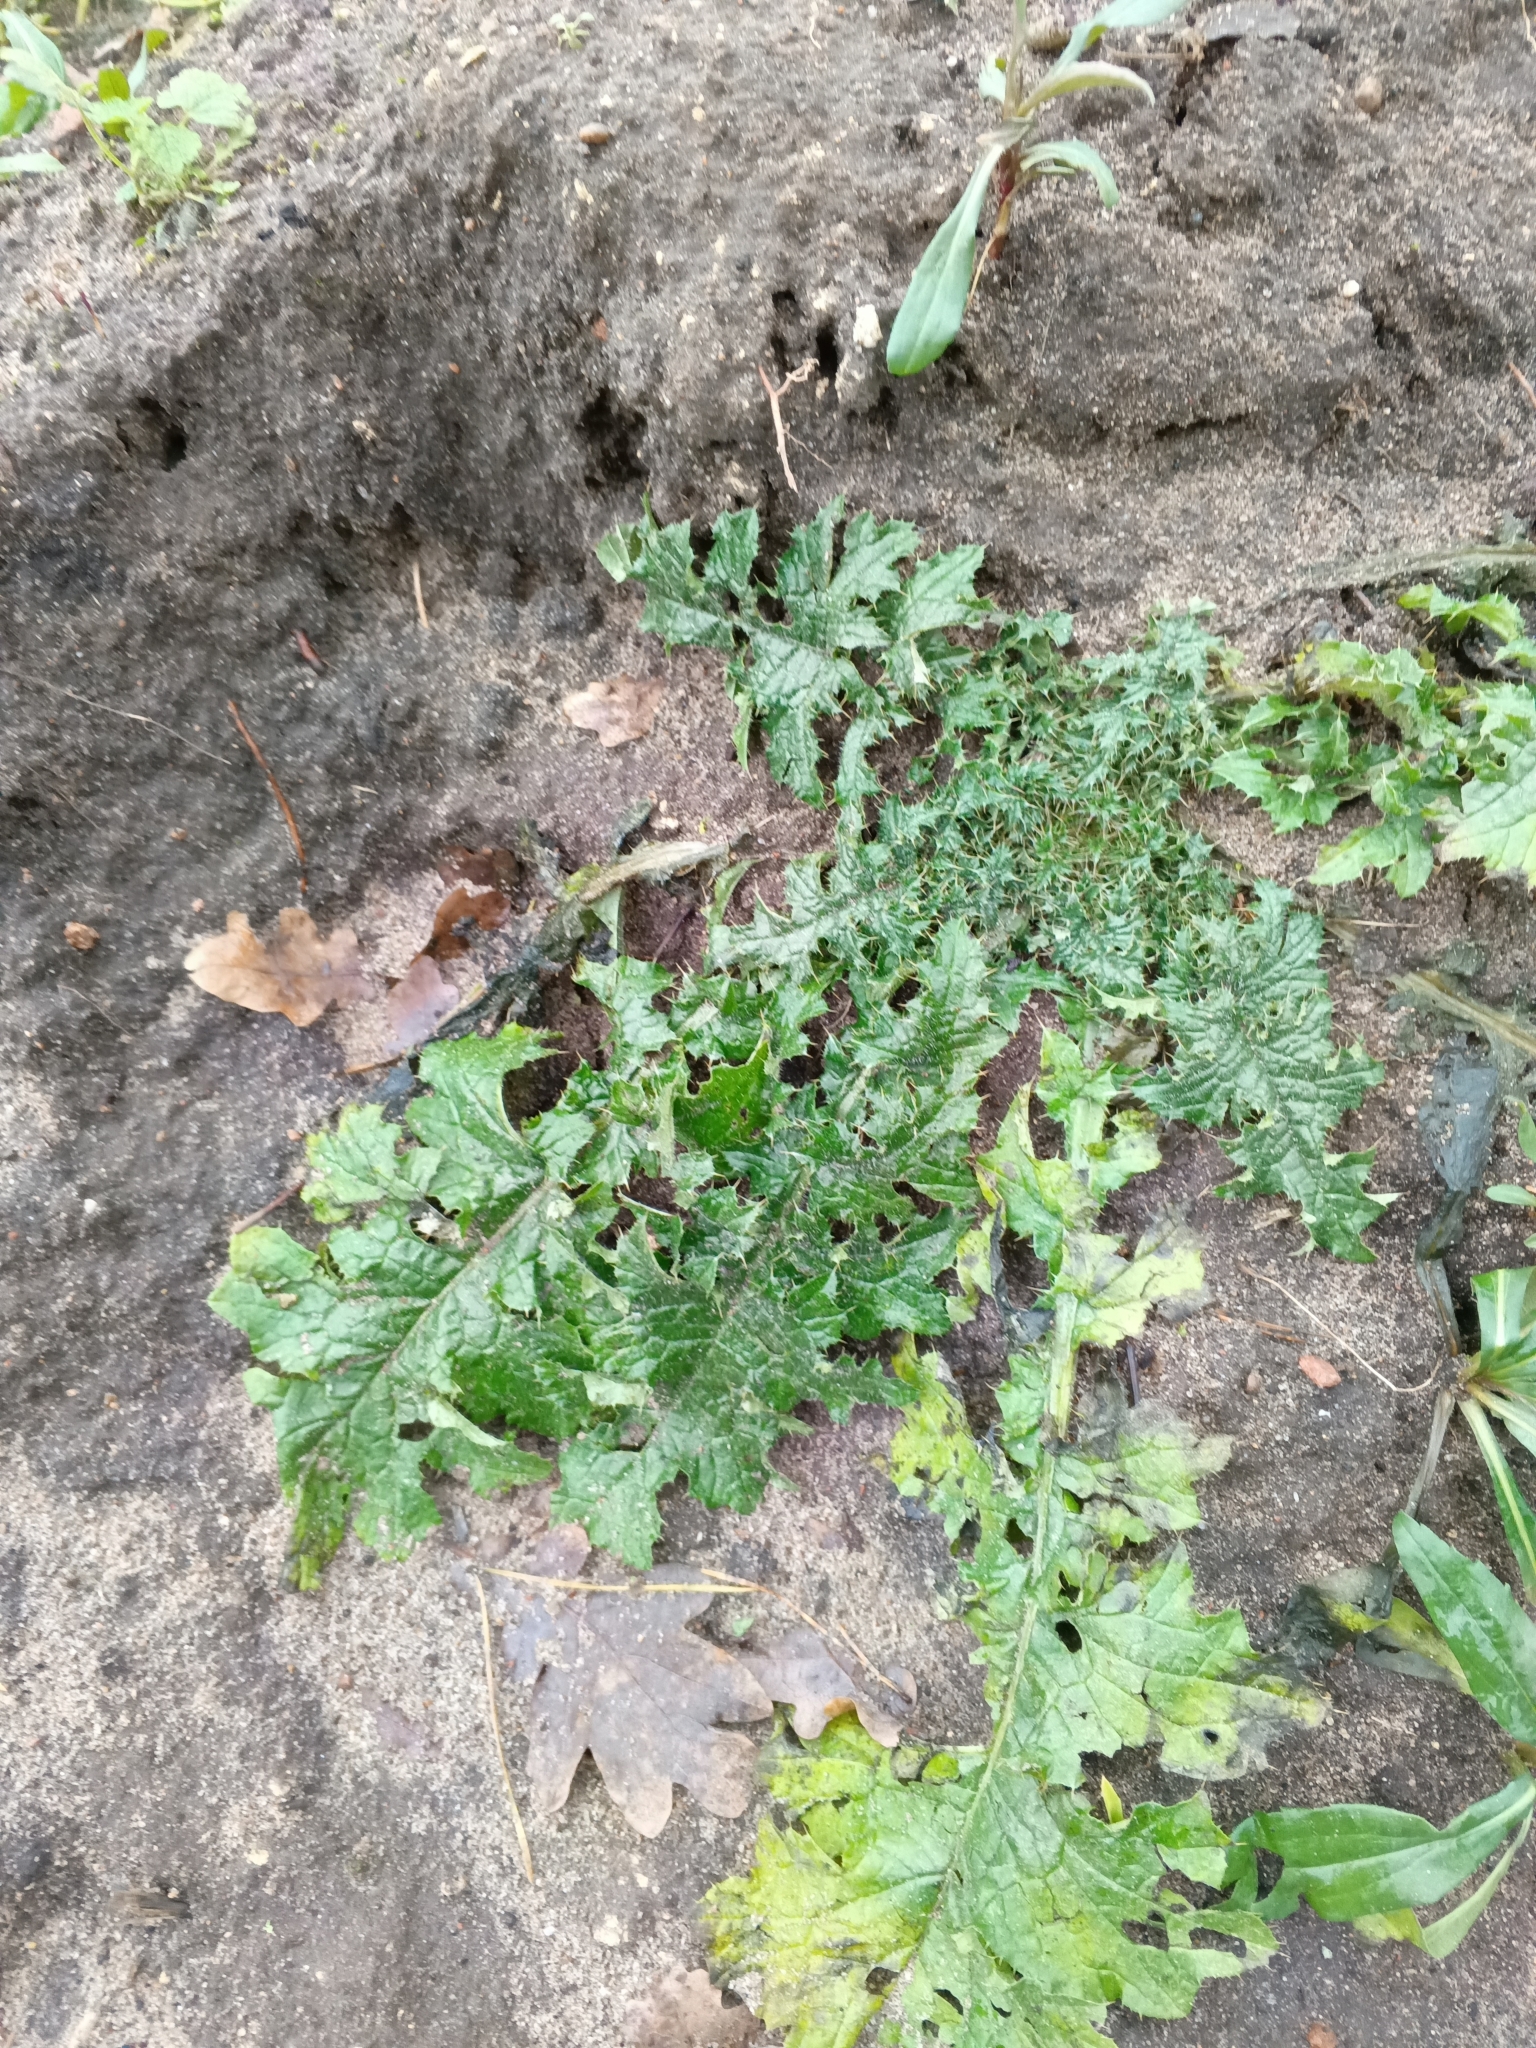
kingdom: Plantae
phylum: Tracheophyta
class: Magnoliopsida
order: Asterales
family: Asteraceae
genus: Carduus
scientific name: Carduus crispus
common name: Welted thistle
